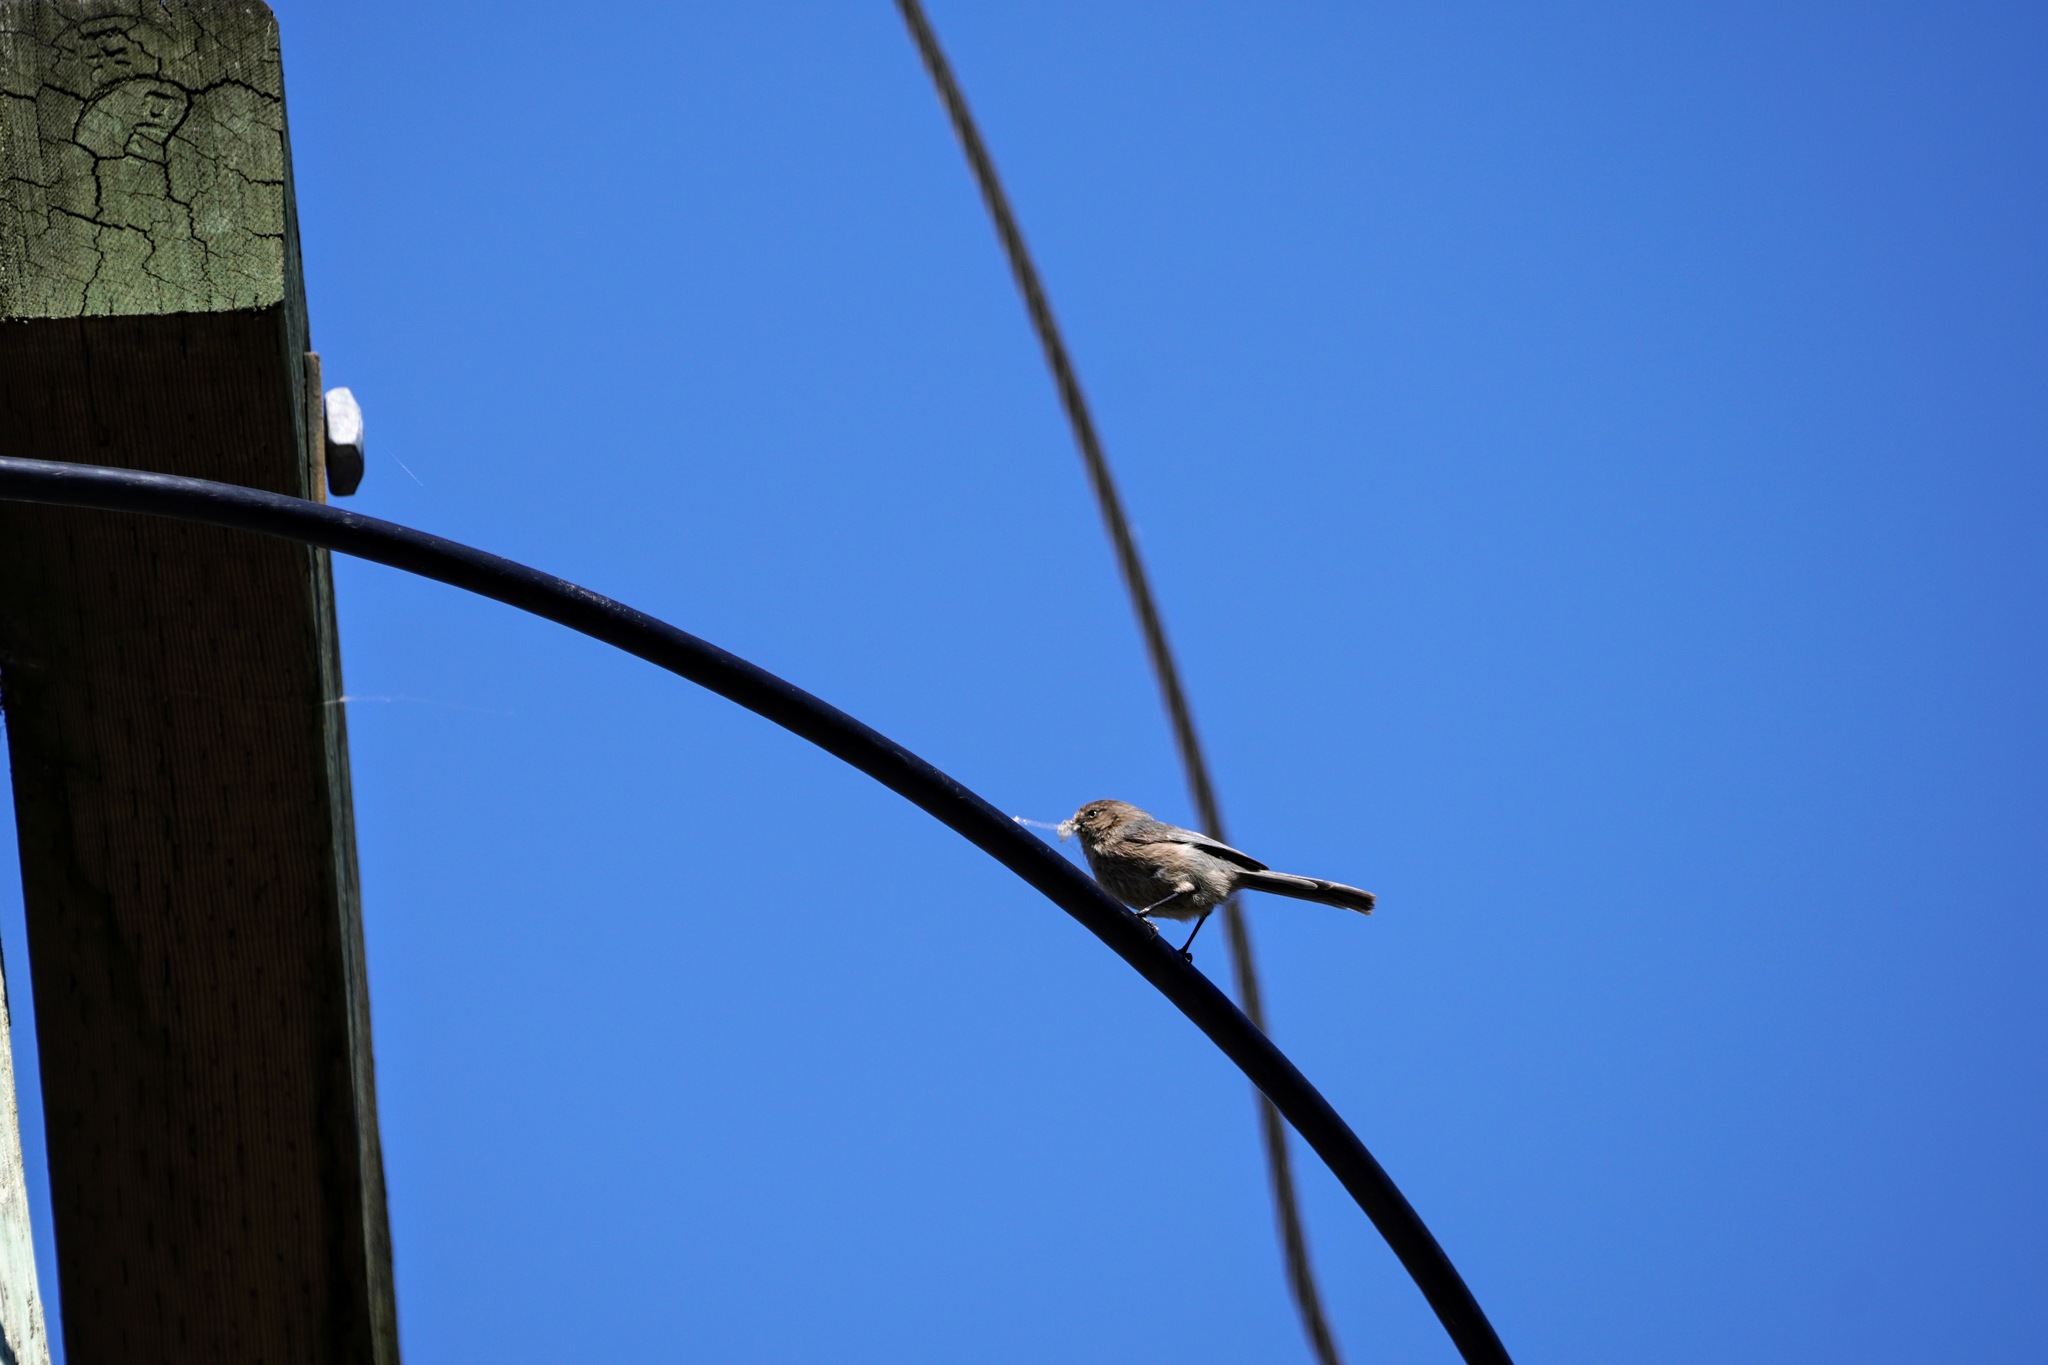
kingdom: Animalia
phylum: Chordata
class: Aves
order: Passeriformes
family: Aegithalidae
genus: Psaltriparus
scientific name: Psaltriparus minimus
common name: American bushtit
